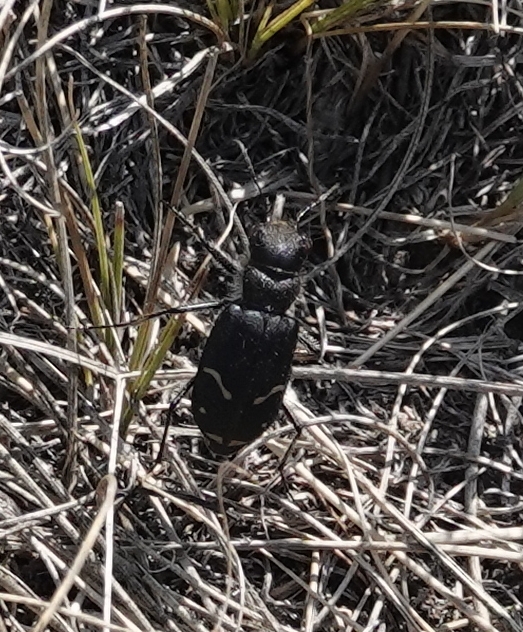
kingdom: Animalia
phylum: Arthropoda
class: Insecta
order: Coleoptera
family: Carabidae
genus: Cicindela
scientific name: Cicindela purpurea
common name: Cow path tiger beetle
